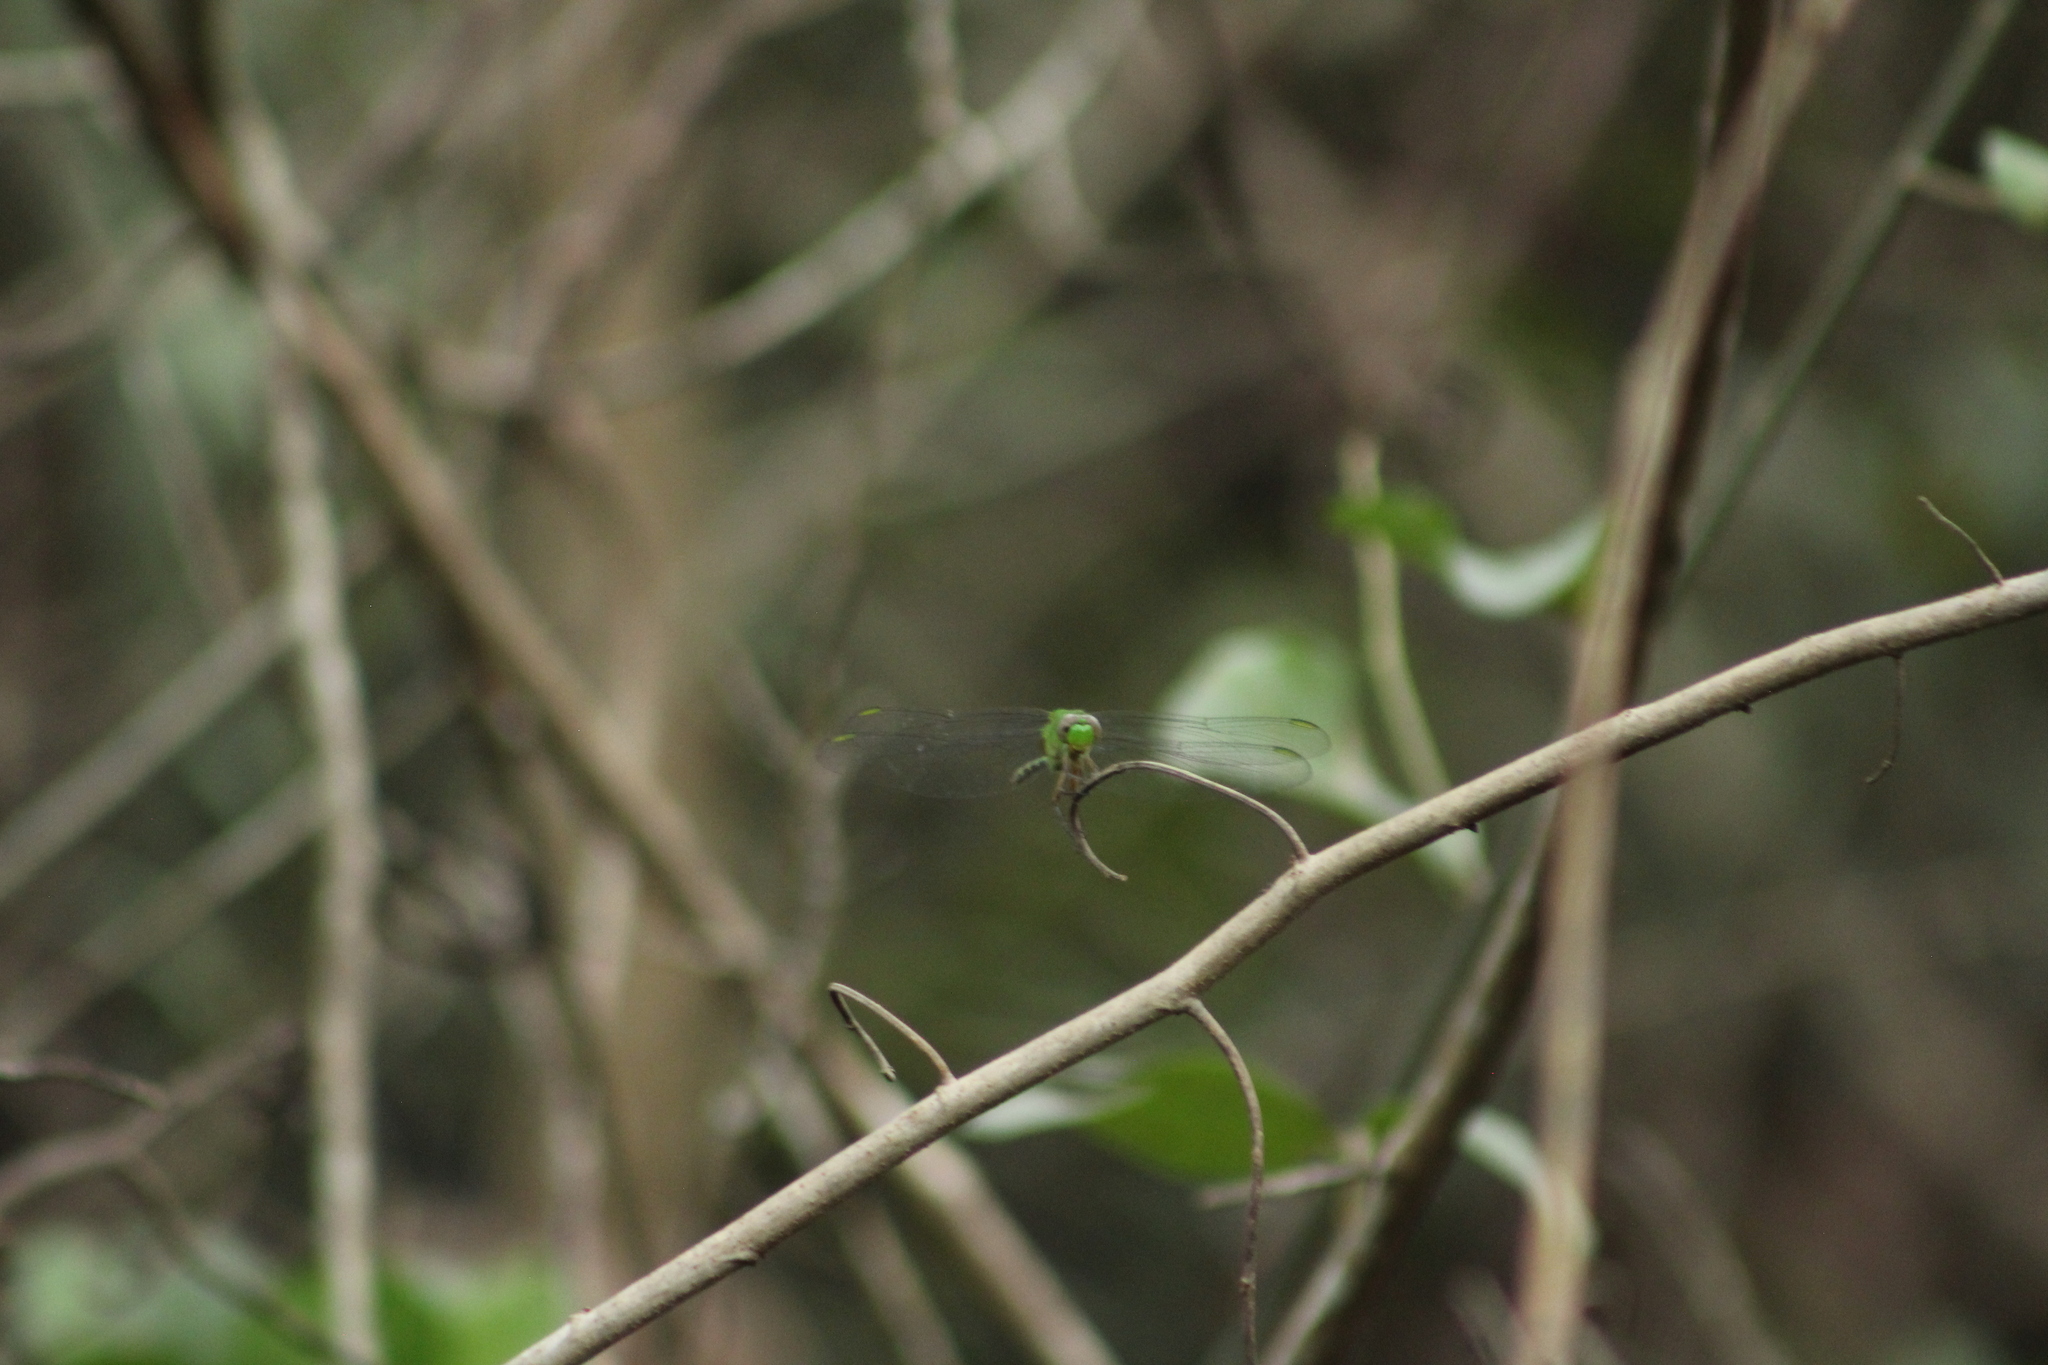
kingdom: Animalia
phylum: Arthropoda
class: Insecta
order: Odonata
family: Libellulidae
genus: Erythemis
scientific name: Erythemis vesiculosa
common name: Great pondhawk
